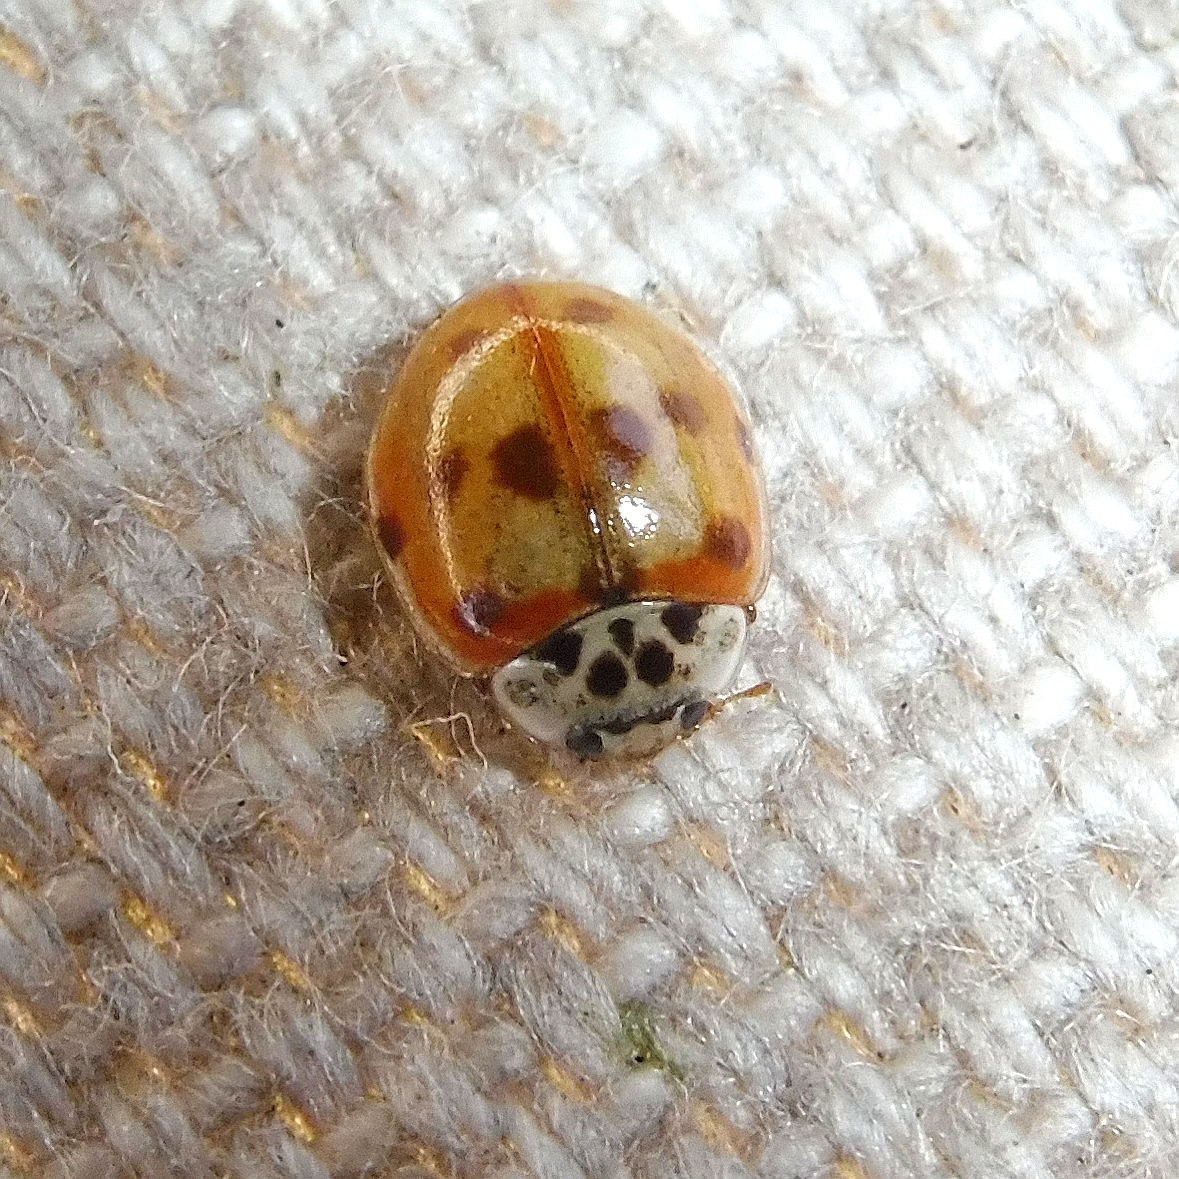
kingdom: Animalia
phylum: Arthropoda
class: Insecta
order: Coleoptera
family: Coccinellidae
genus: Adalia
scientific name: Adalia decempunctata
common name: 10-spot ladybird
